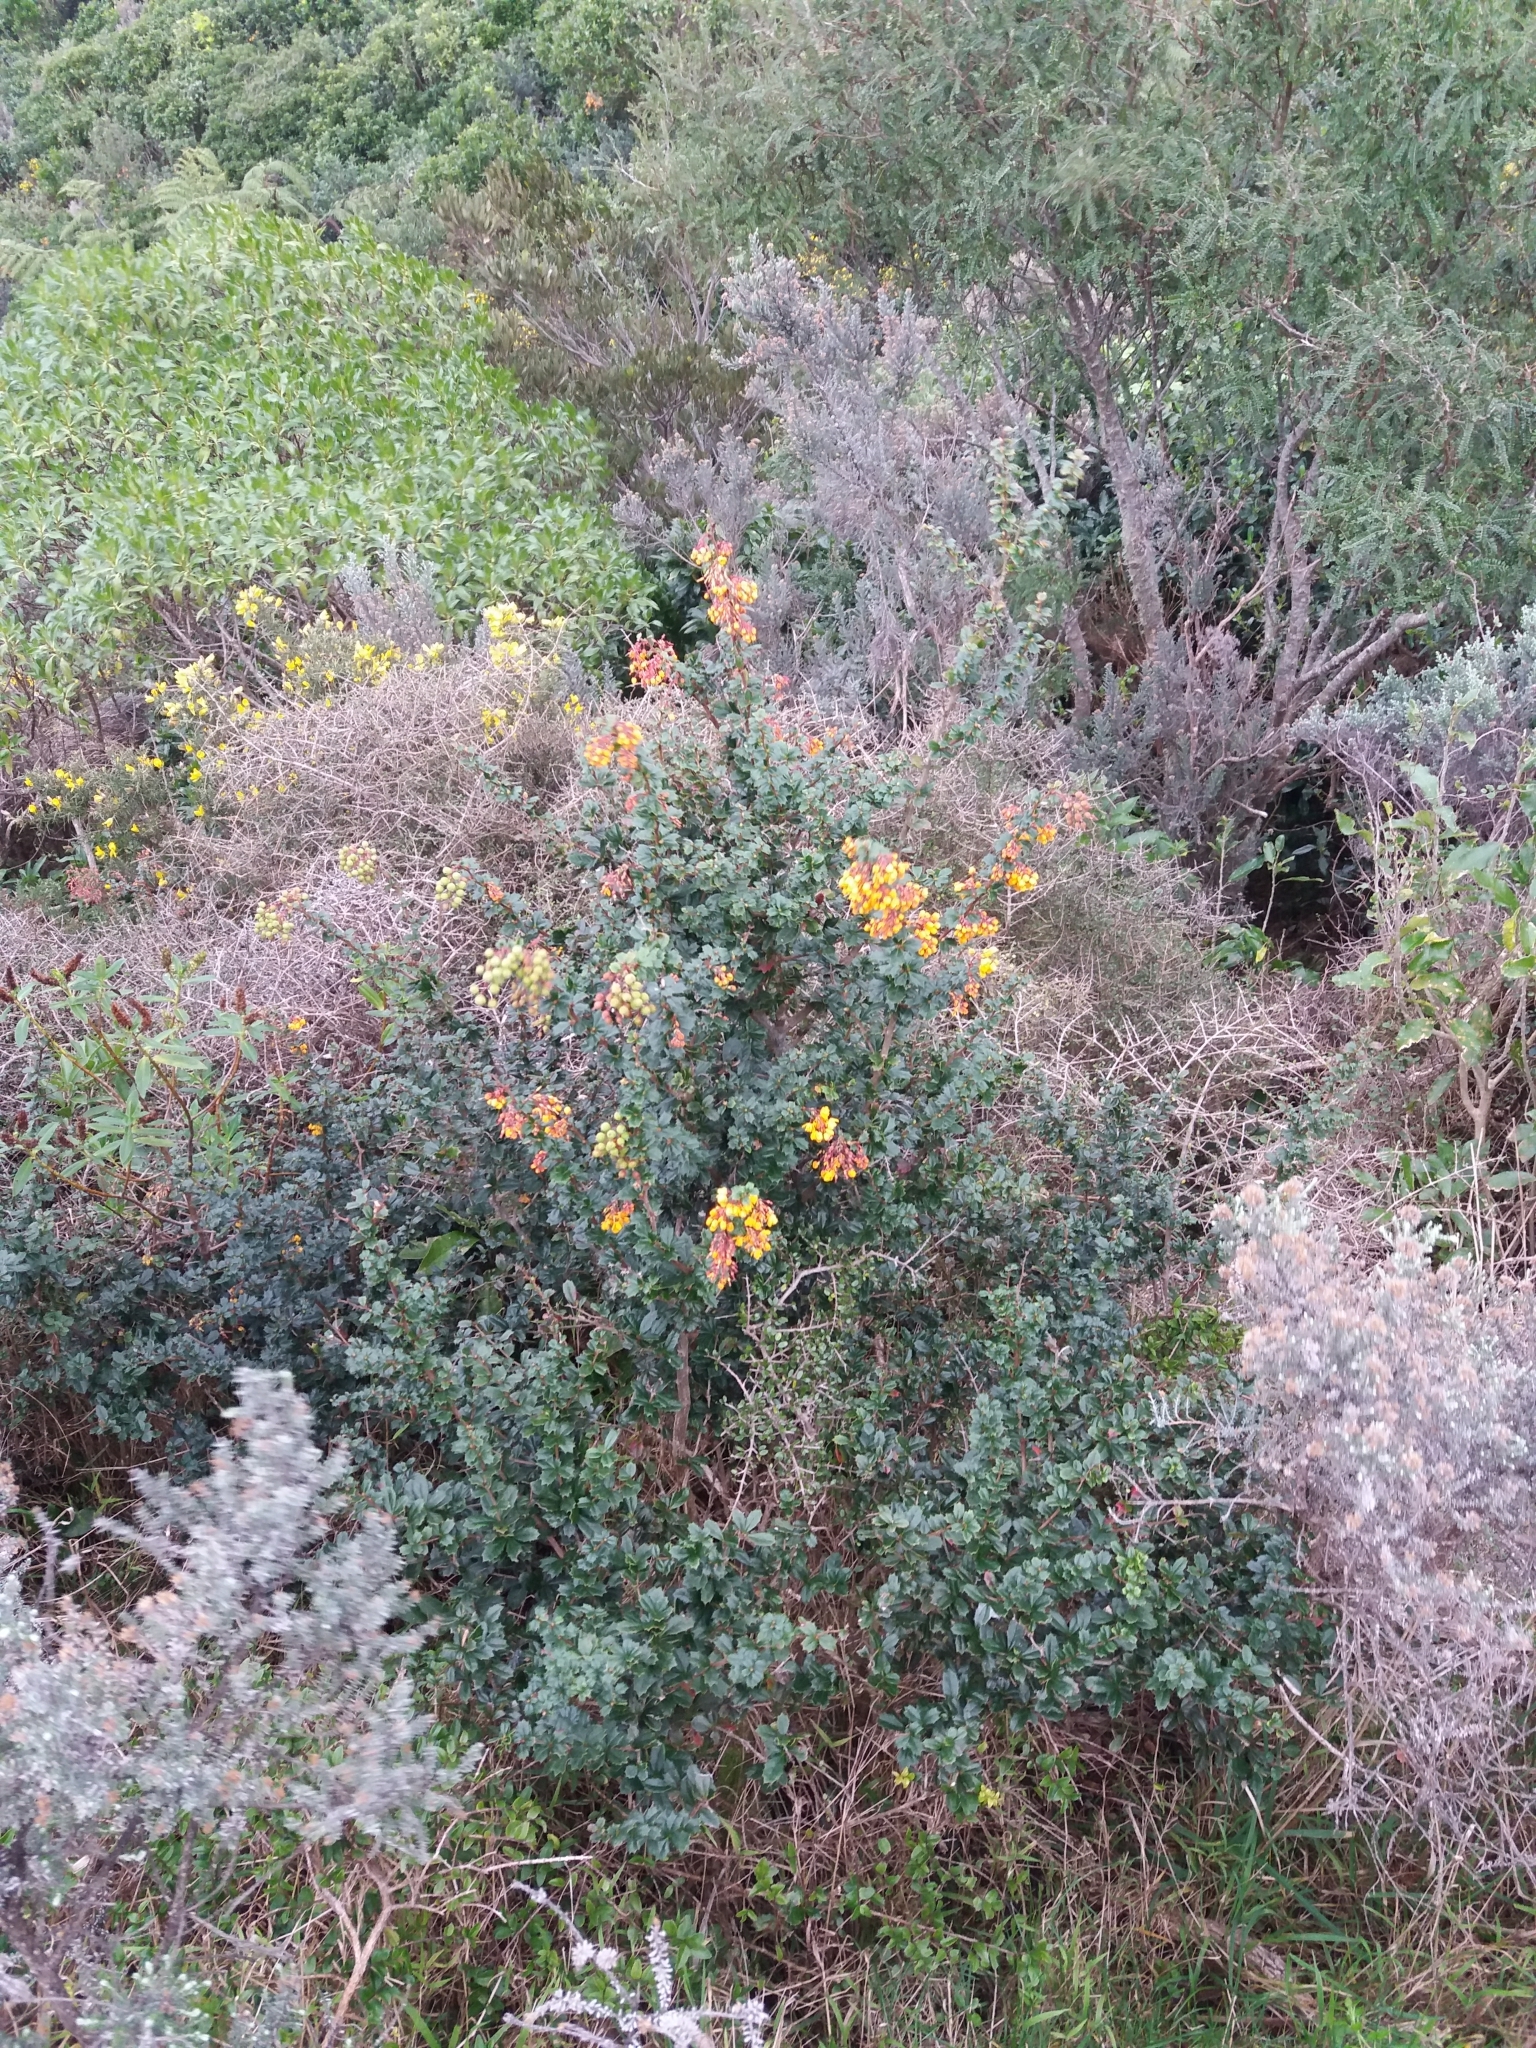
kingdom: Plantae
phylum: Tracheophyta
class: Magnoliopsida
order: Ranunculales
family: Berberidaceae
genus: Berberis
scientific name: Berberis darwinii
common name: Darwin's barberry
